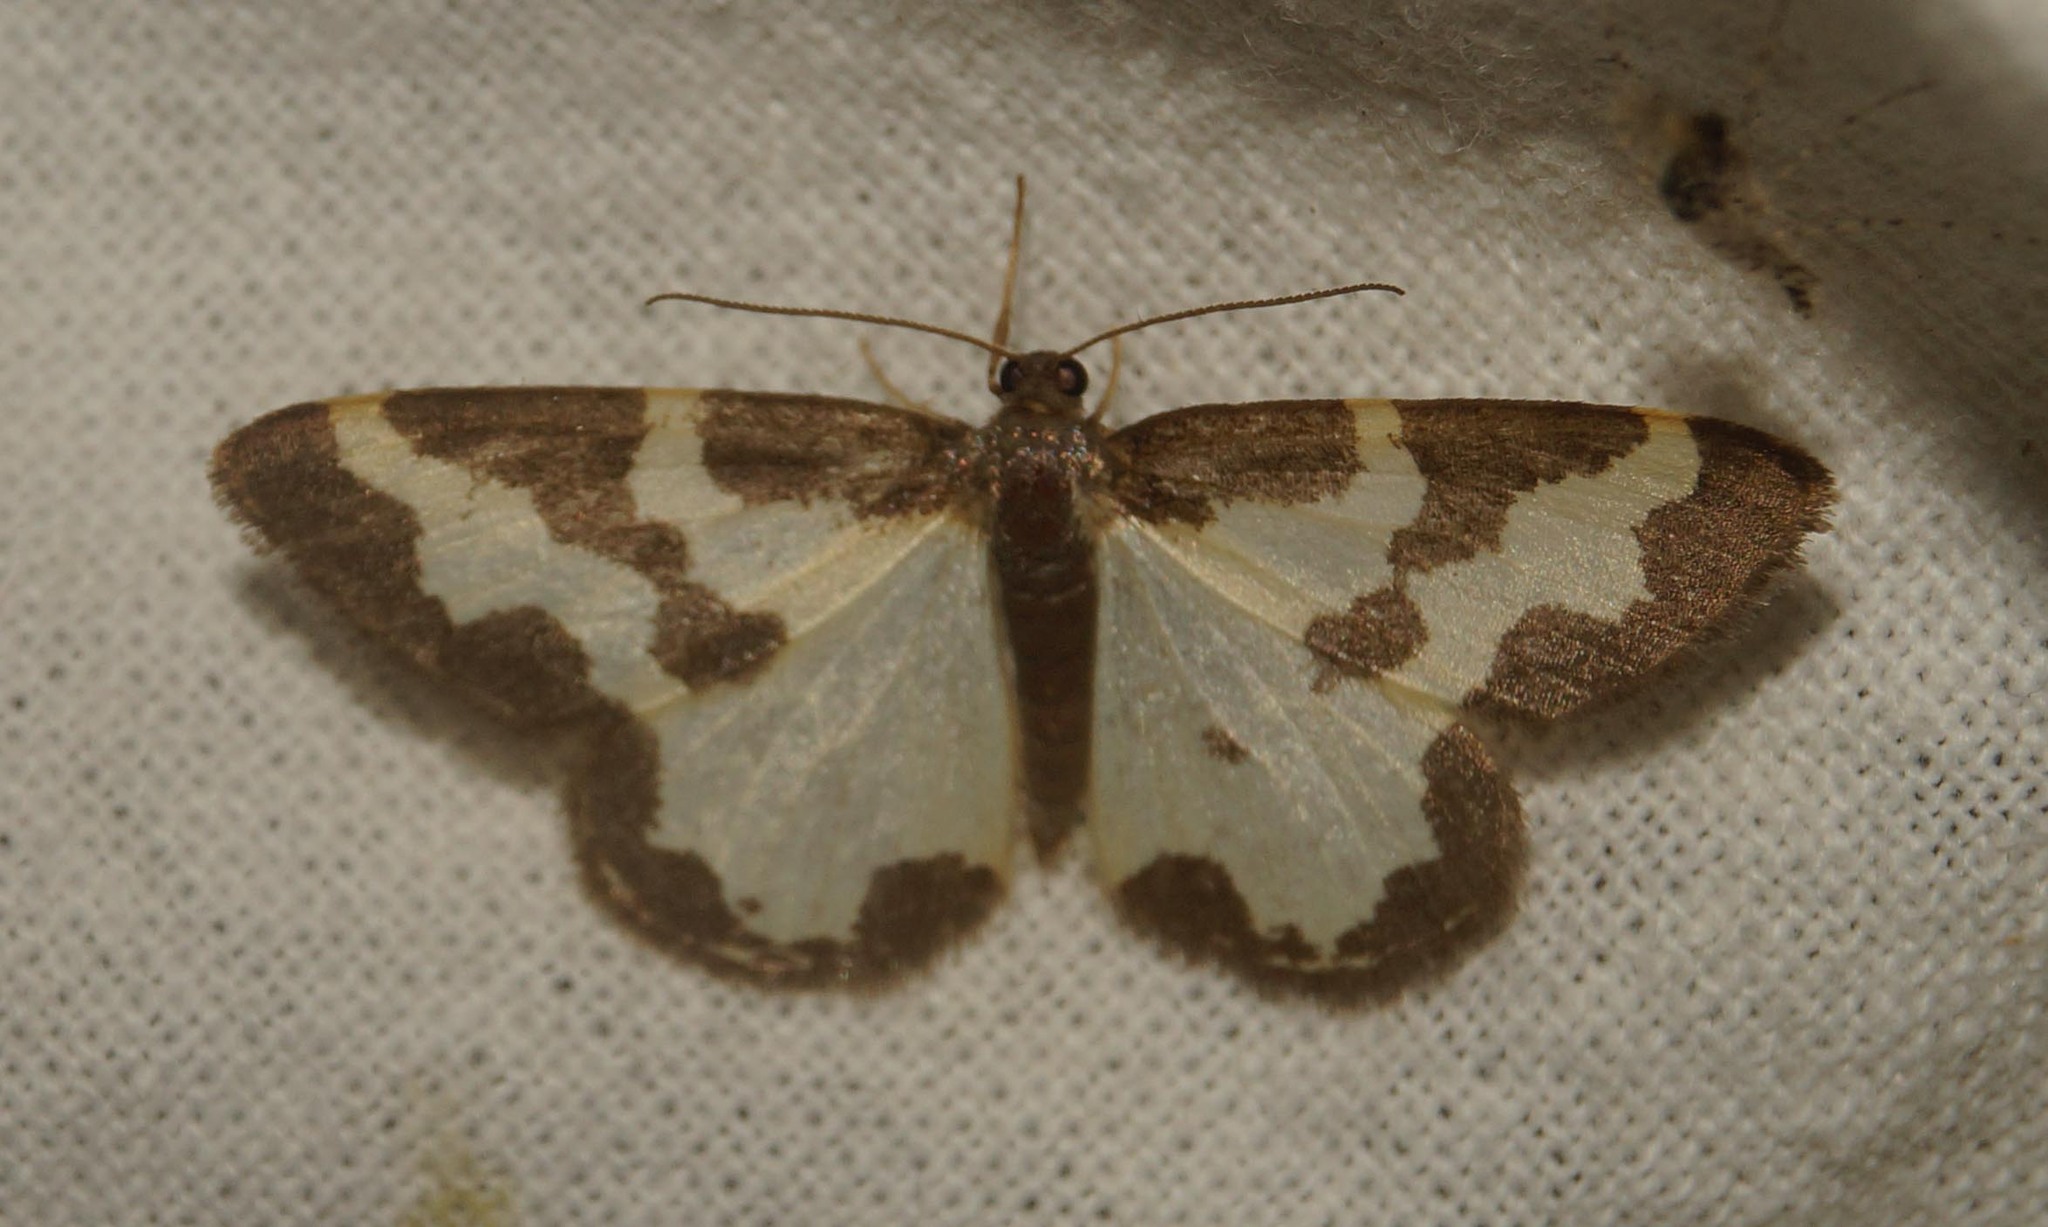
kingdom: Animalia
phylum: Arthropoda
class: Insecta
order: Lepidoptera
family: Geometridae
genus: Lomaspilis
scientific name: Lomaspilis marginata
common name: Clouded border
